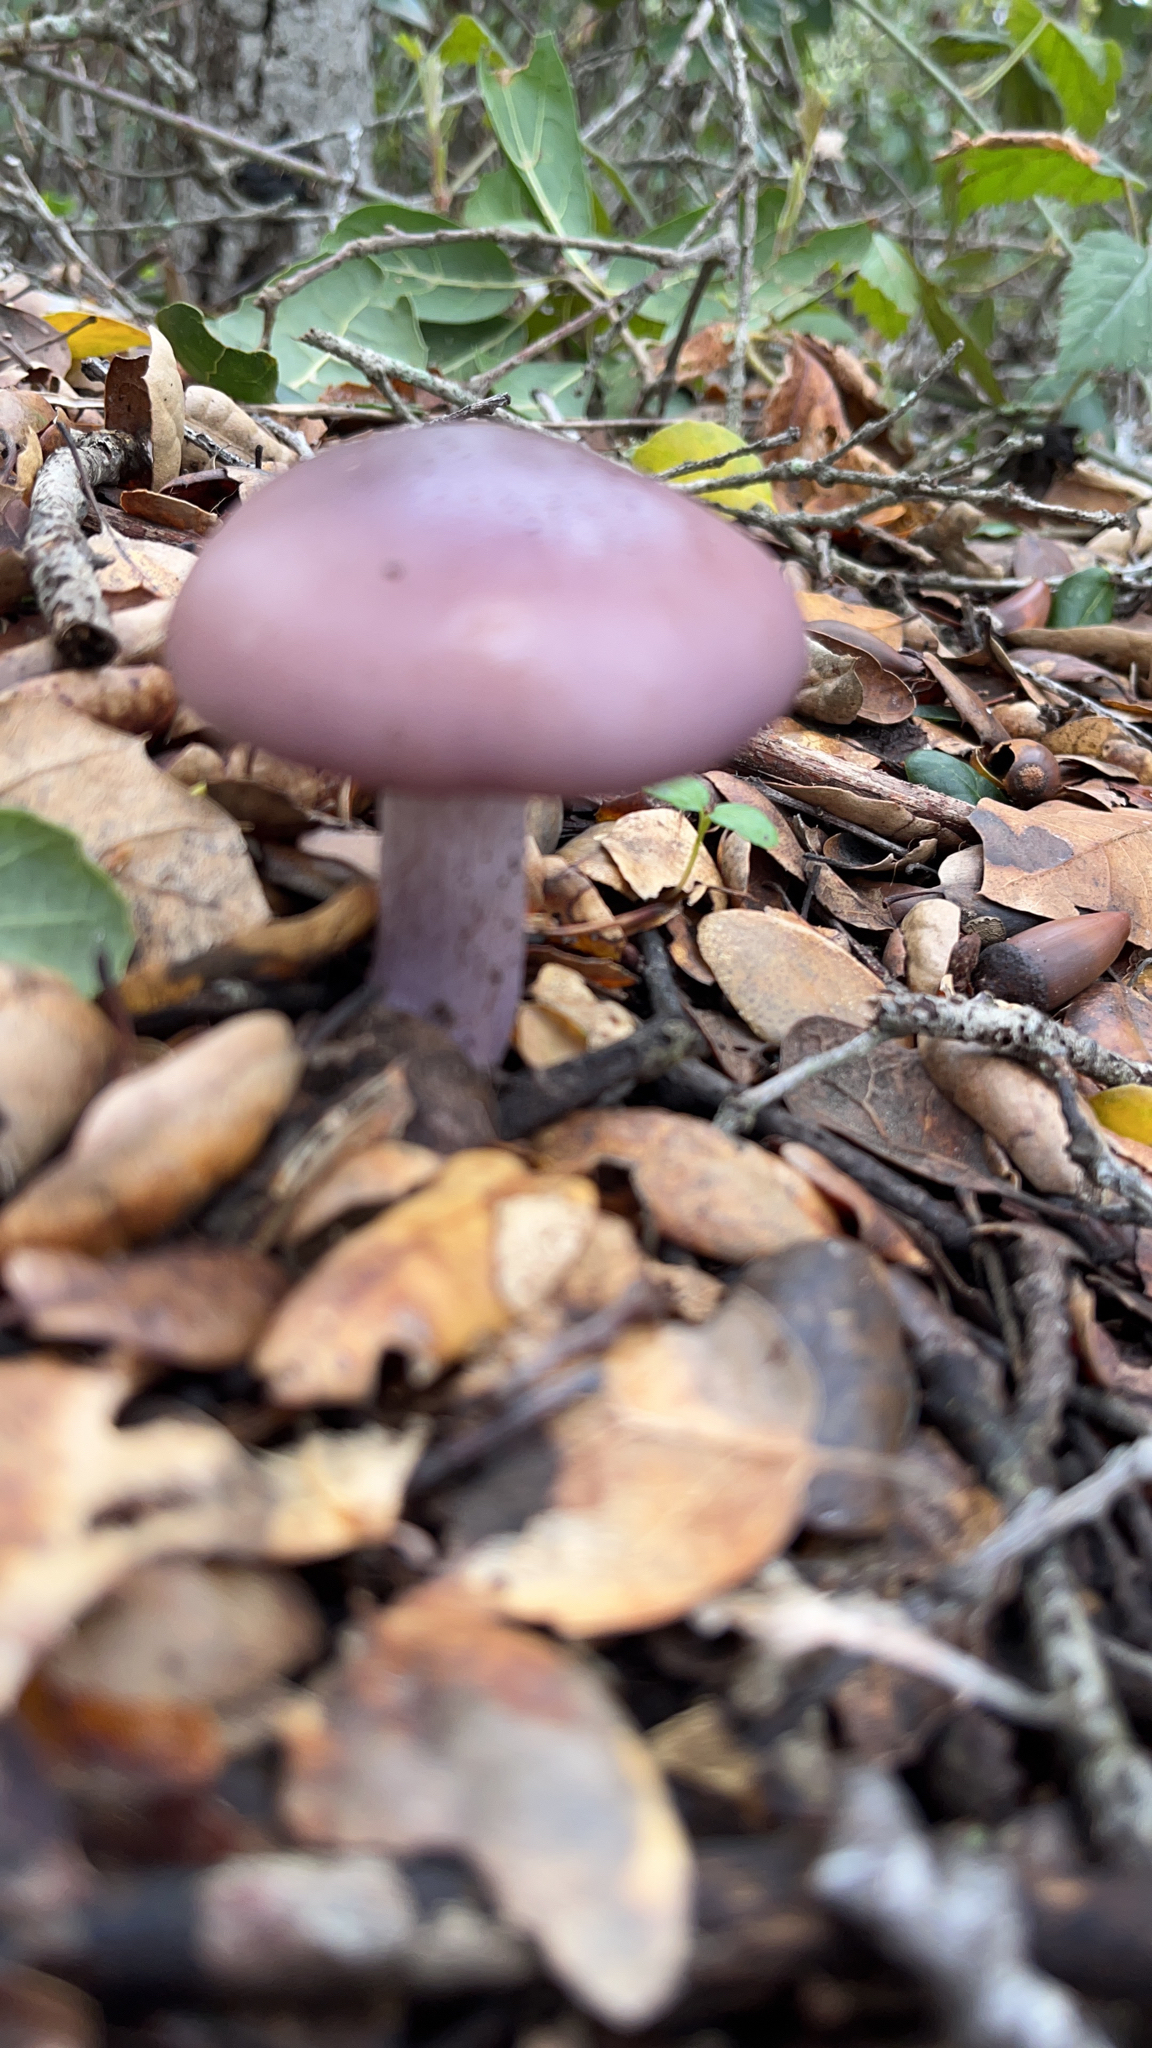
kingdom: Fungi
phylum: Basidiomycota
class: Agaricomycetes
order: Agaricales
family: Tricholomataceae
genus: Collybia
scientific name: Collybia
